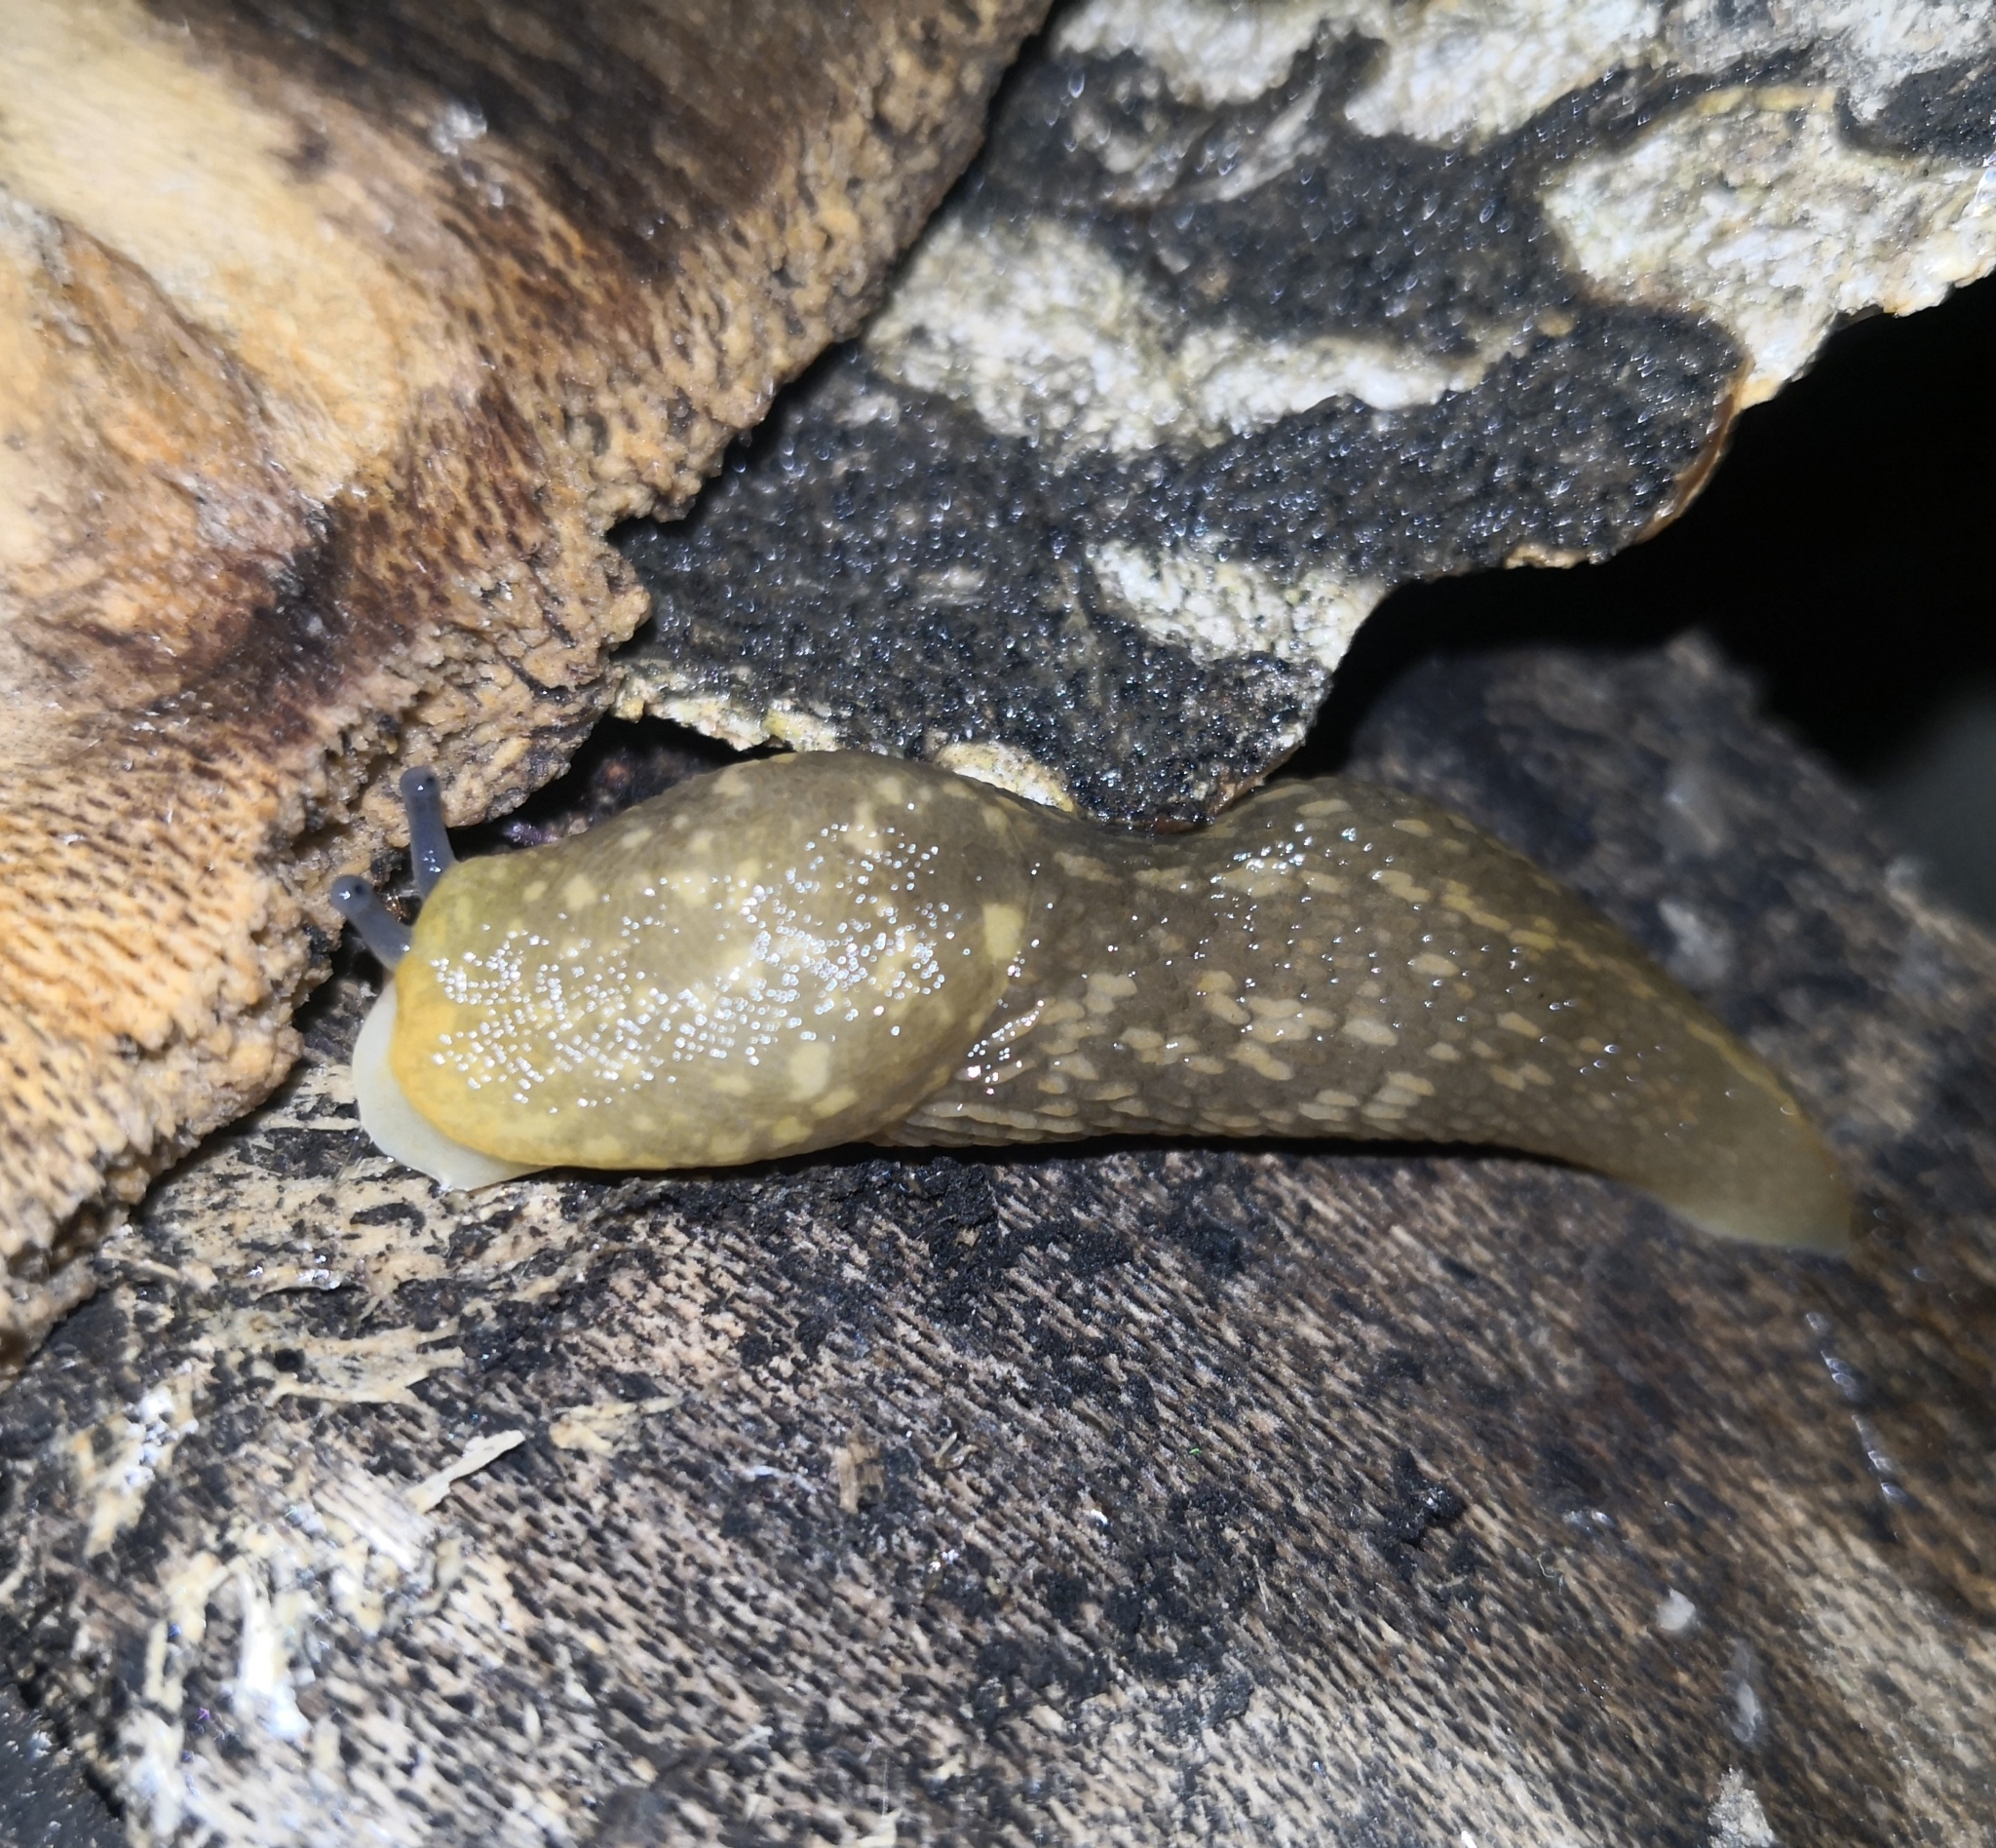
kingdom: Animalia
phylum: Mollusca
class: Gastropoda
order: Stylommatophora
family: Limacidae
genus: Limacus
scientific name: Limacus flavus
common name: Yellow gardenslug
